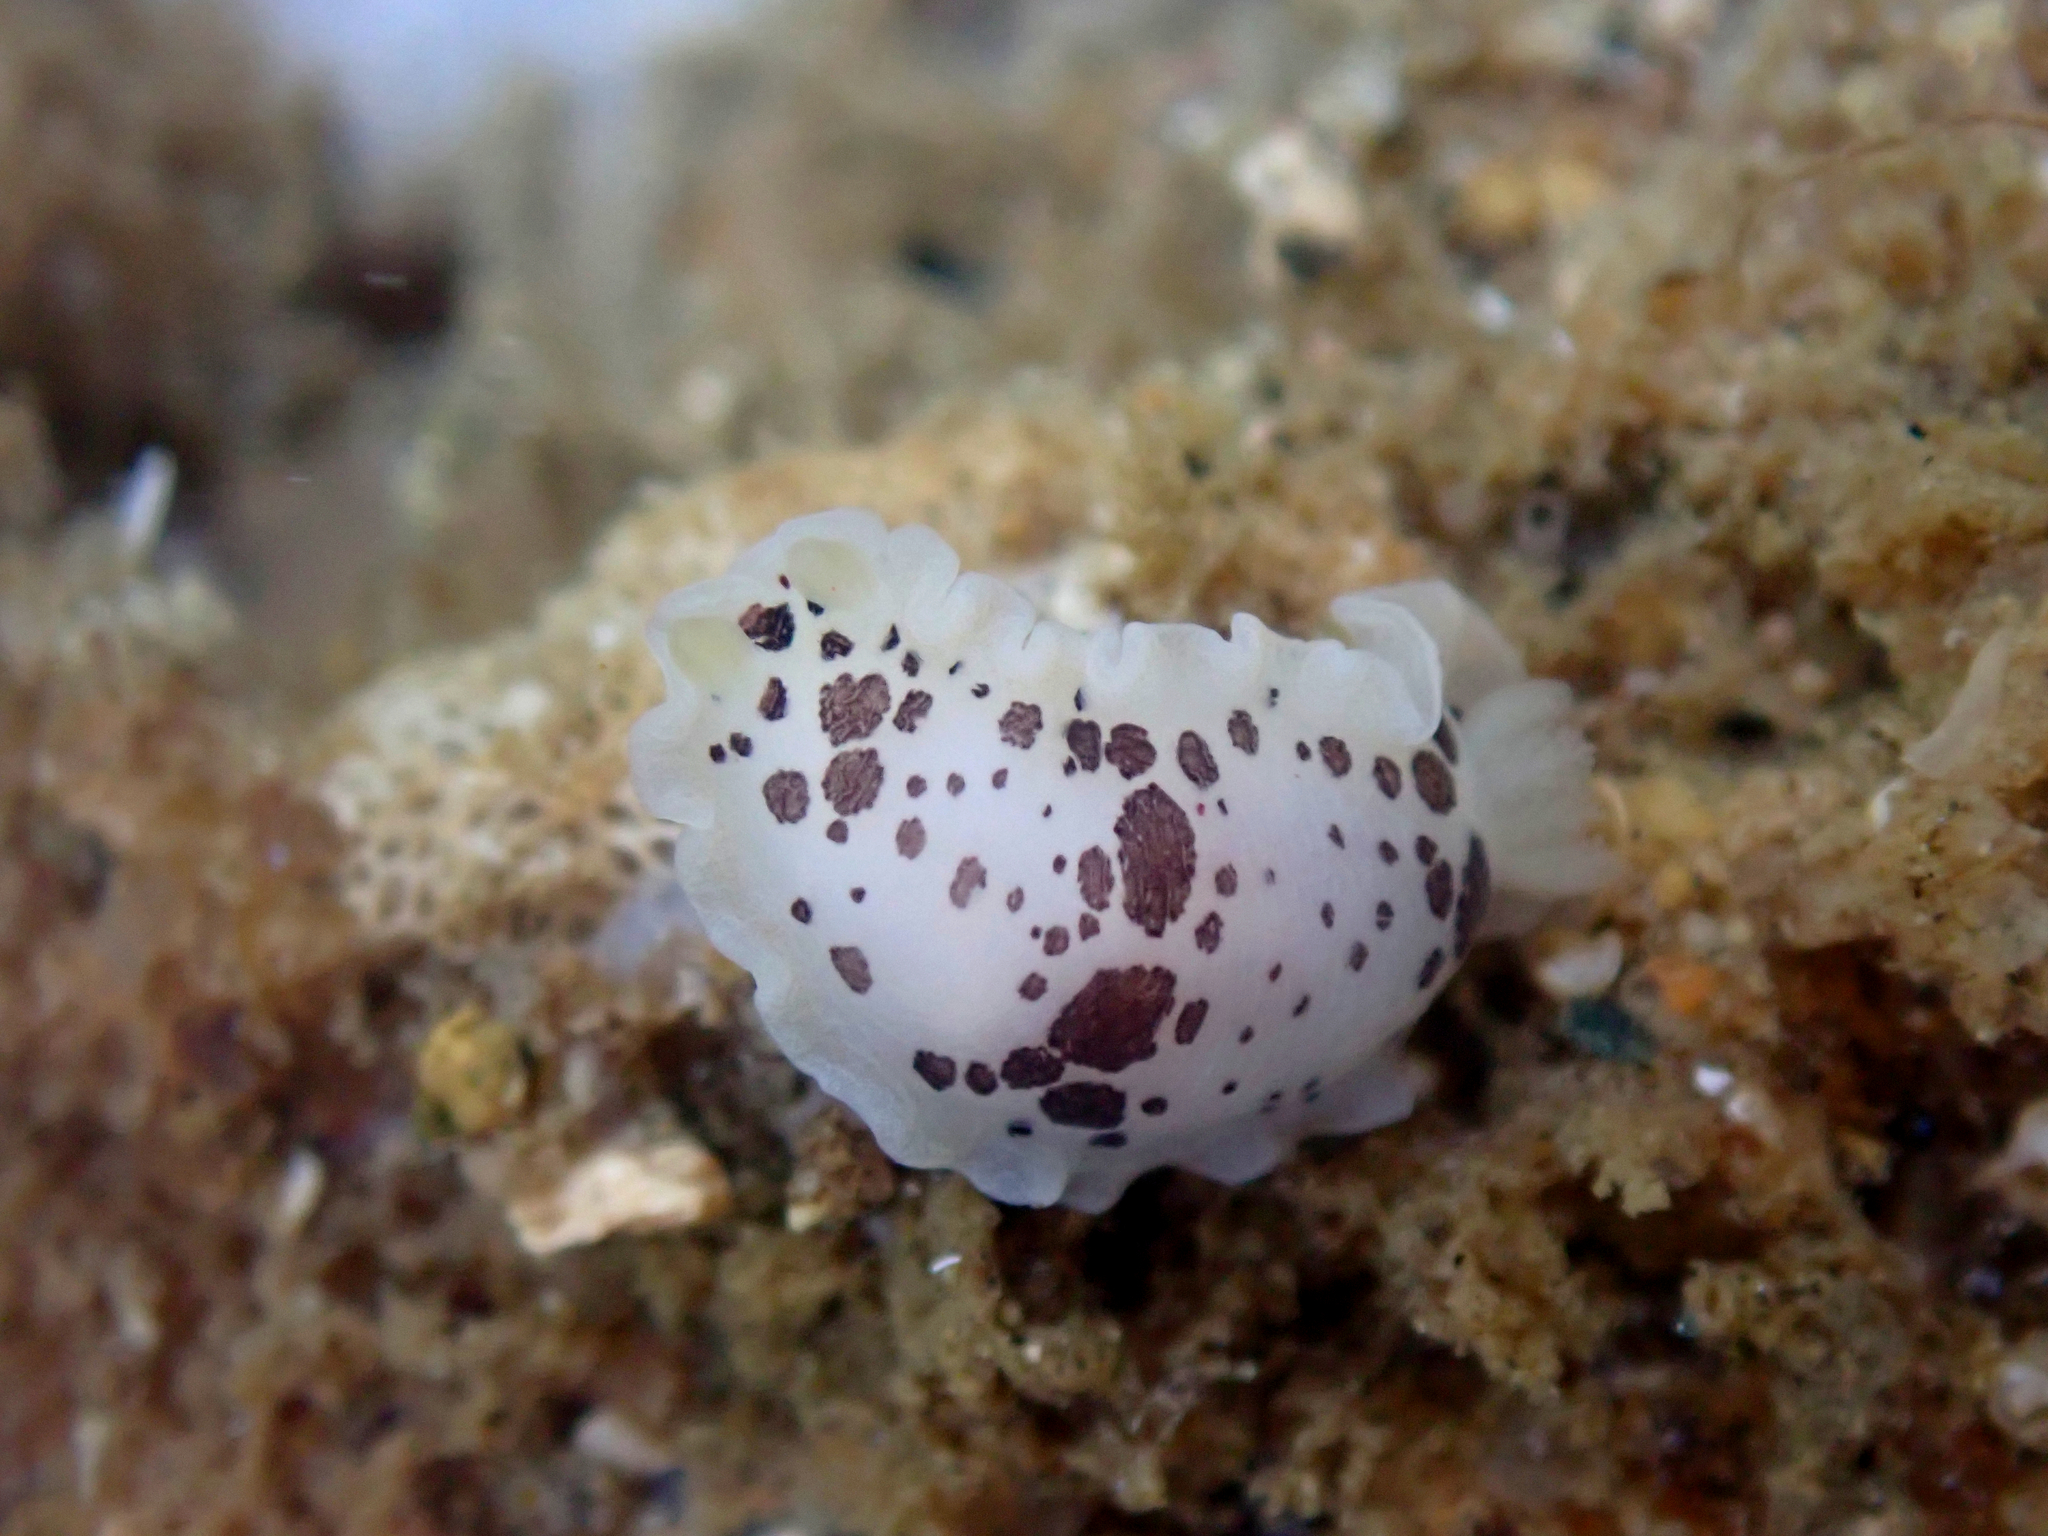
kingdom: Animalia
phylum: Mollusca
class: Gastropoda
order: Nudibranchia
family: Dendrodorididae
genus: Dendrodoris
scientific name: Dendrodoris nigromaculata
